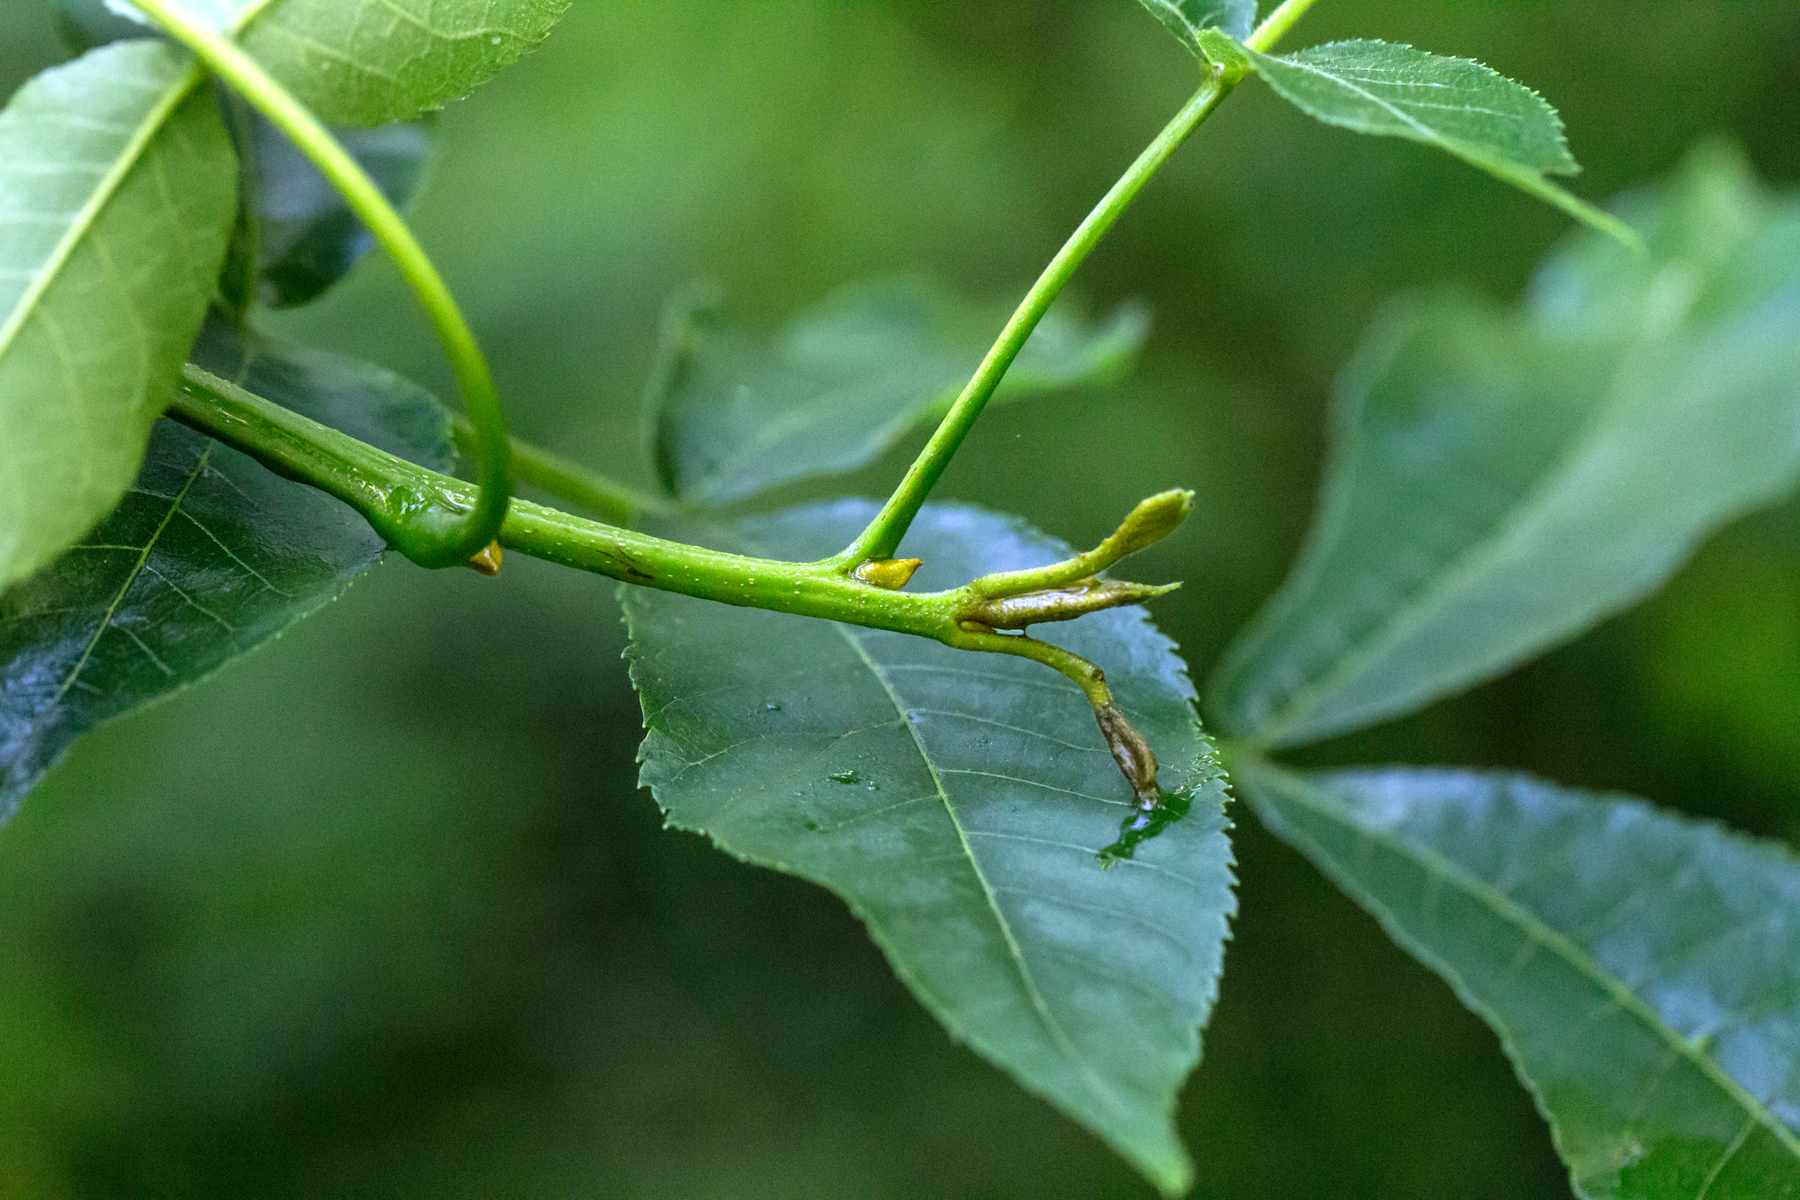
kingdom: Plantae
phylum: Tracheophyta
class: Magnoliopsida
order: Fagales
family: Juglandaceae
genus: Carya
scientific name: Carya cordiformis
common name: Bitternut hickory
